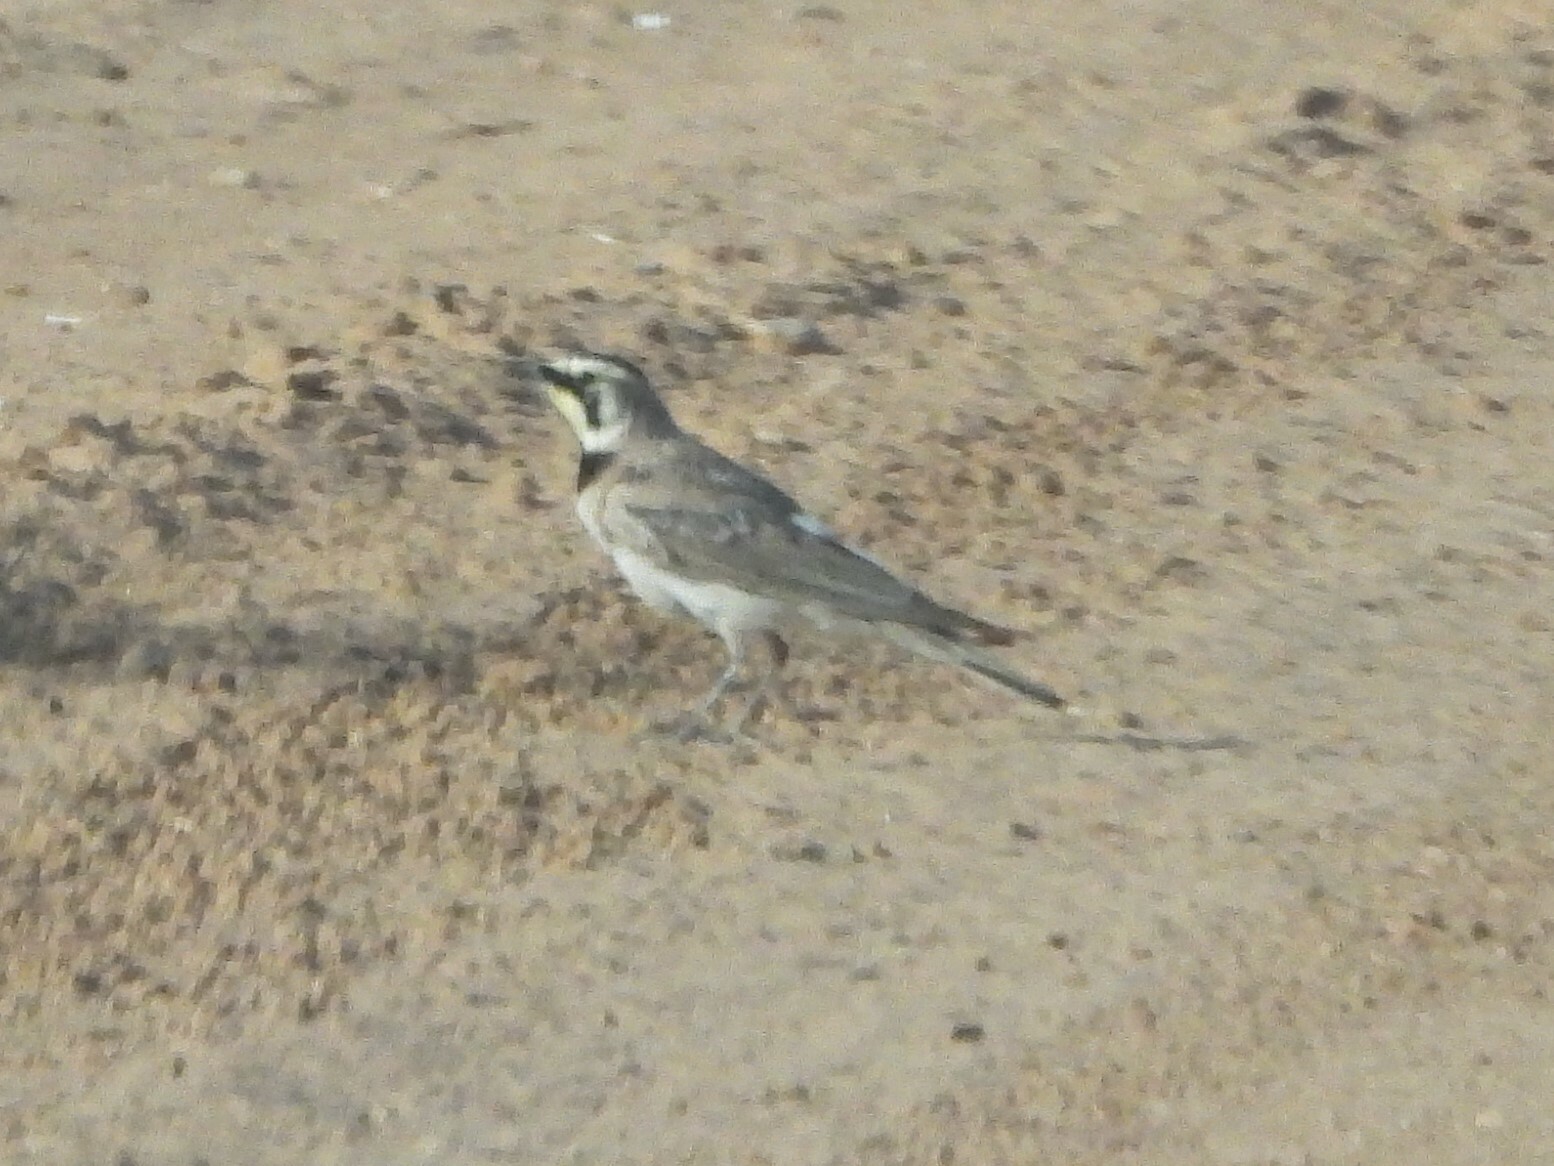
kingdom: Animalia
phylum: Chordata
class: Aves
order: Passeriformes
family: Alaudidae
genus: Eremophila
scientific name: Eremophila alpestris
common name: Horned lark
